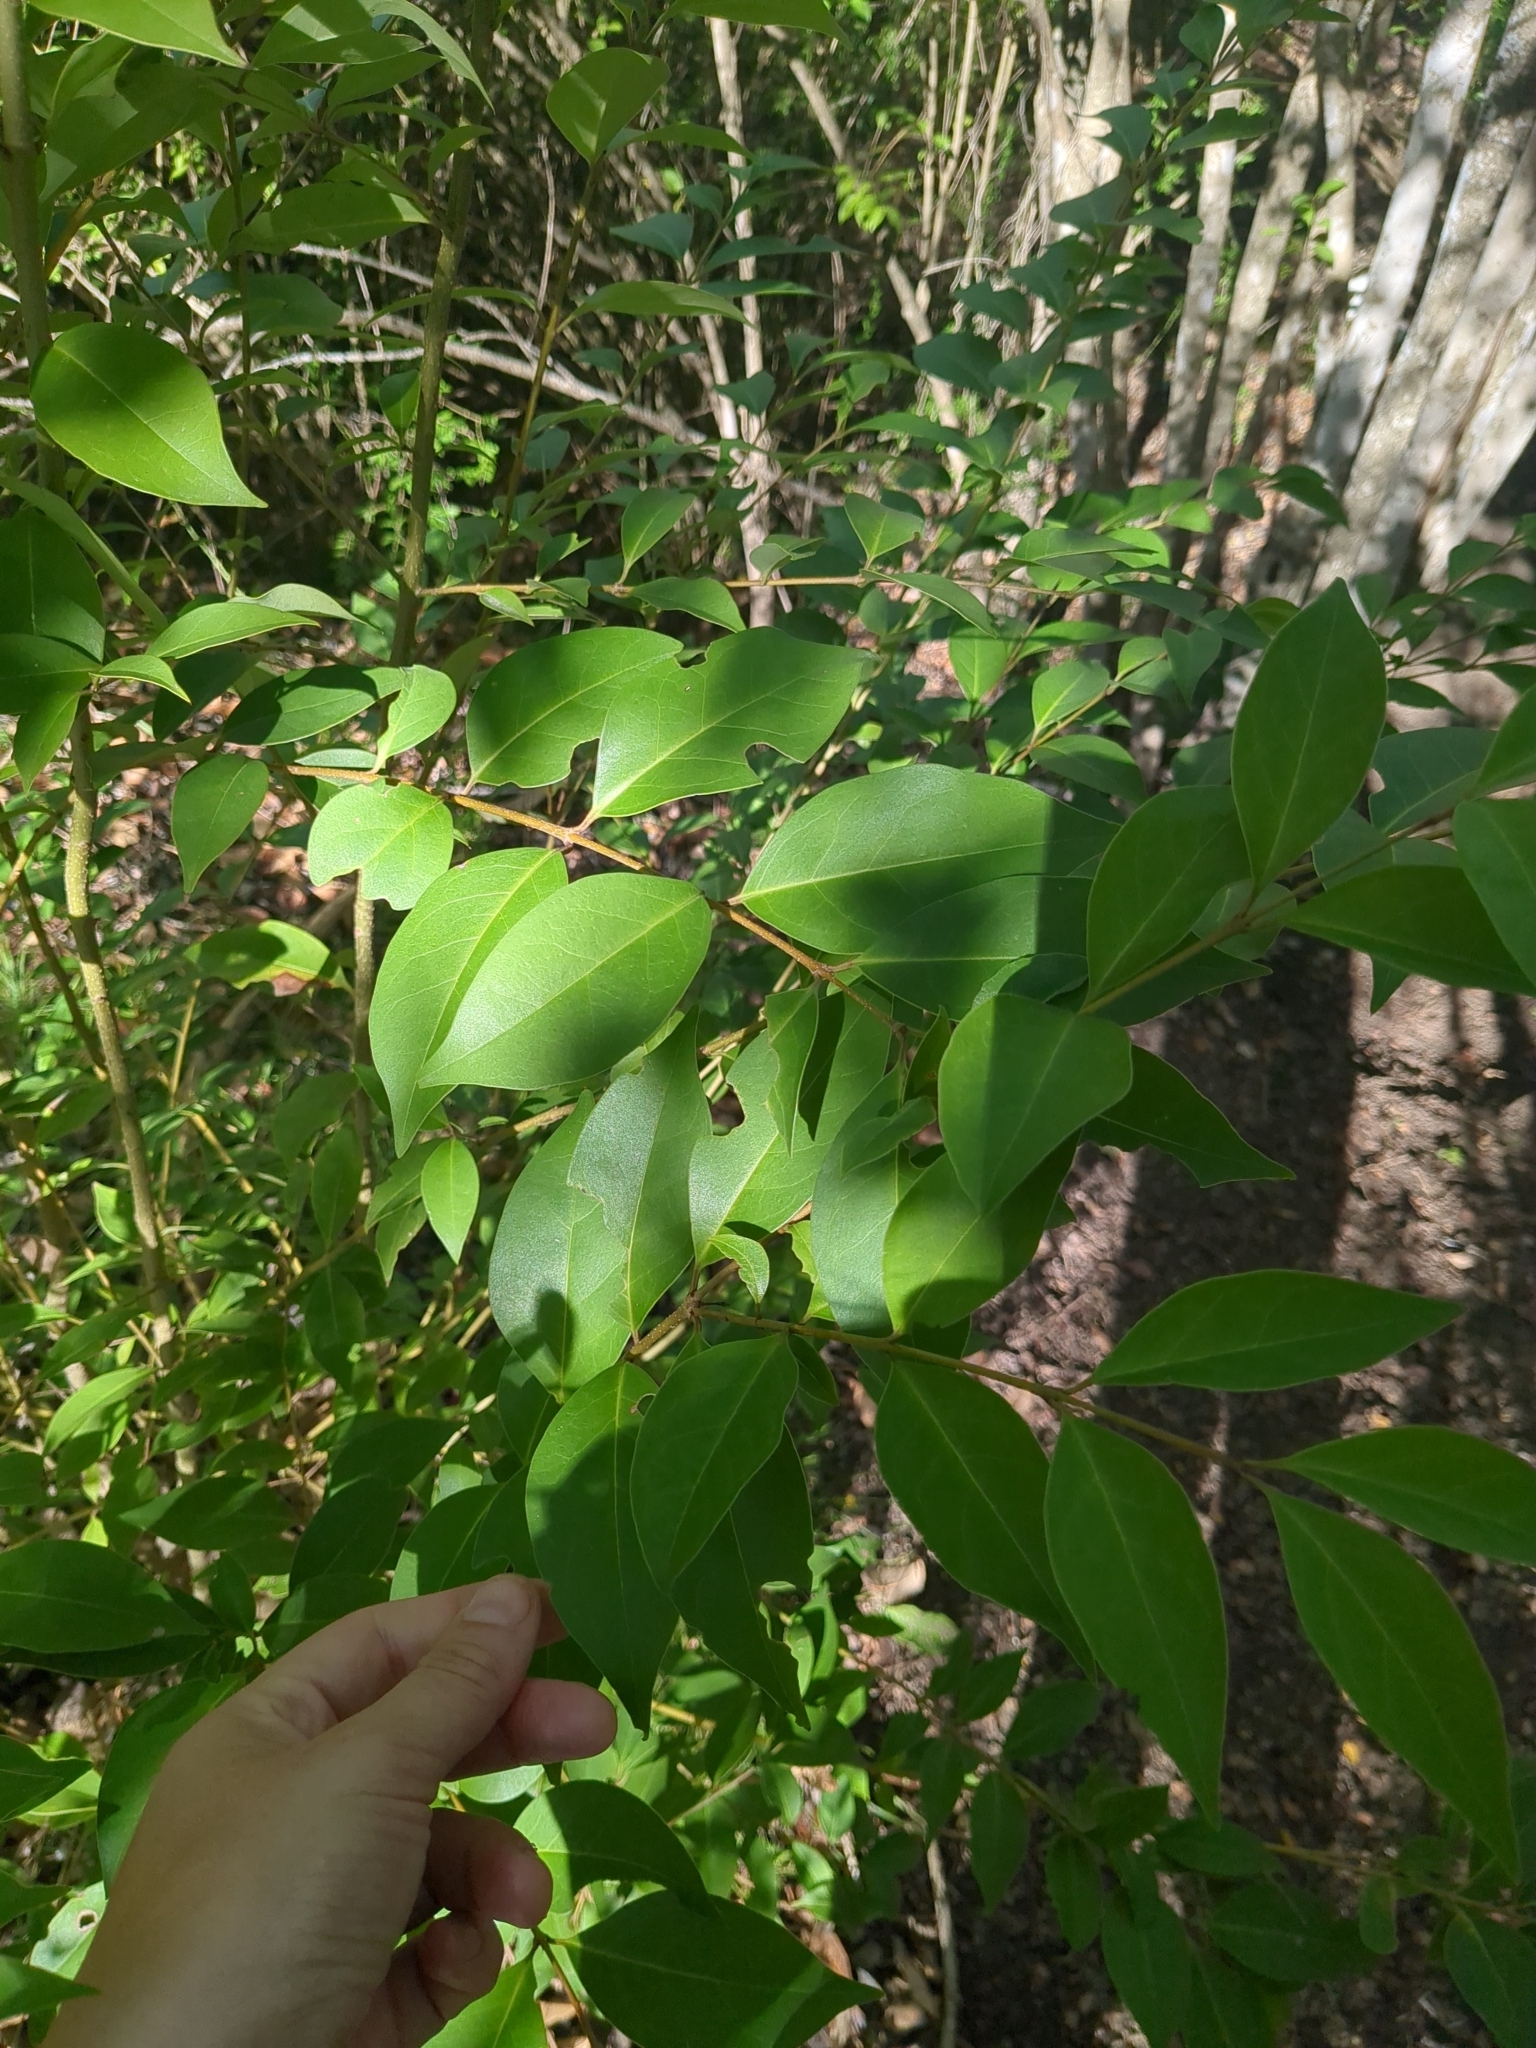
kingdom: Plantae
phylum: Tracheophyta
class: Magnoliopsida
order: Lamiales
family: Oleaceae
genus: Ligustrum
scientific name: Ligustrum lucidum
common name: Glossy privet
